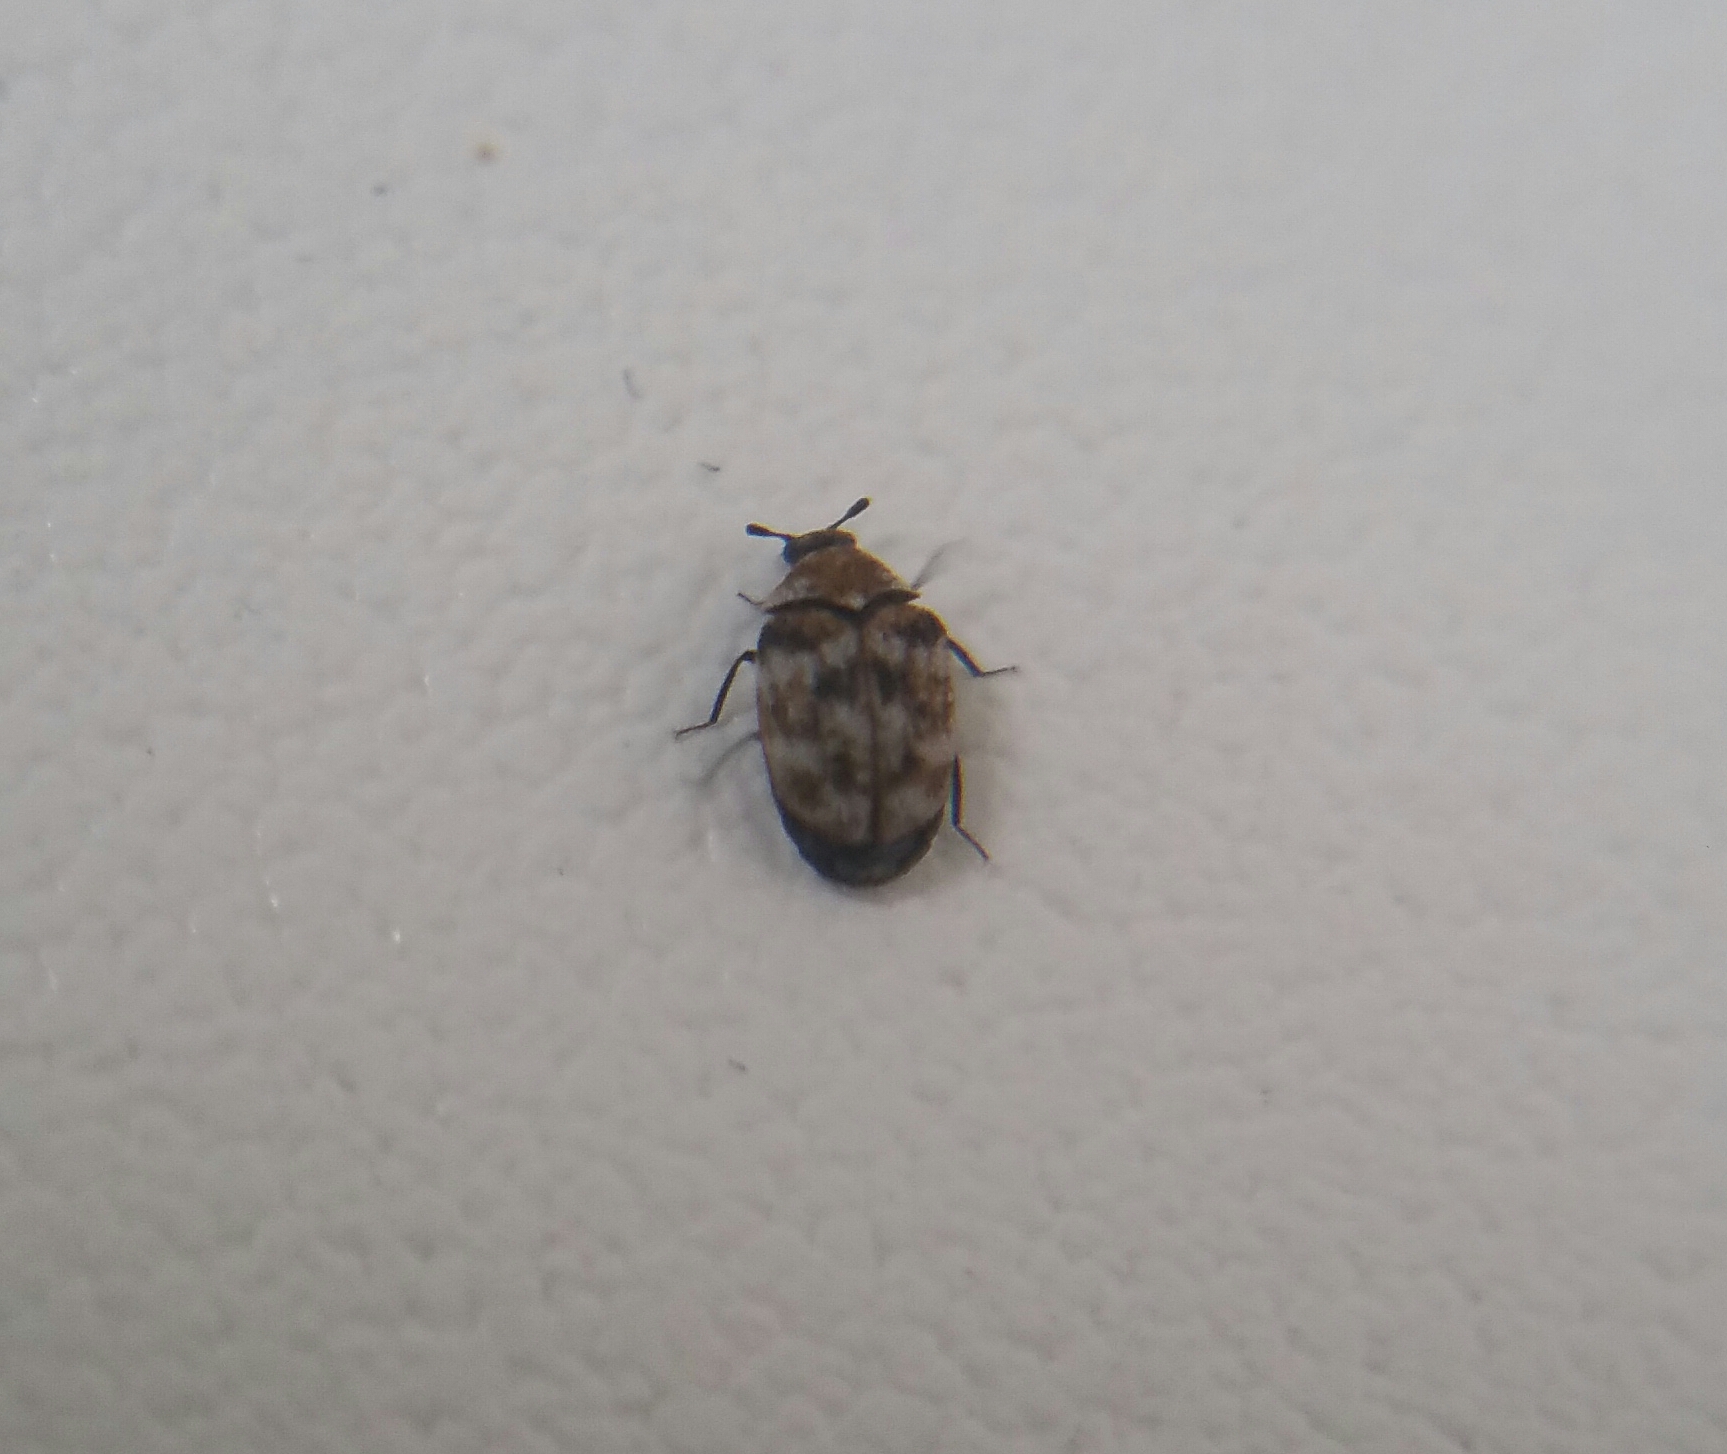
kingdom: Animalia
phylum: Arthropoda
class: Insecta
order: Coleoptera
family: Dermestidae
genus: Anthrenus
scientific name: Anthrenus verbasci
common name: Varied carpet beetle
